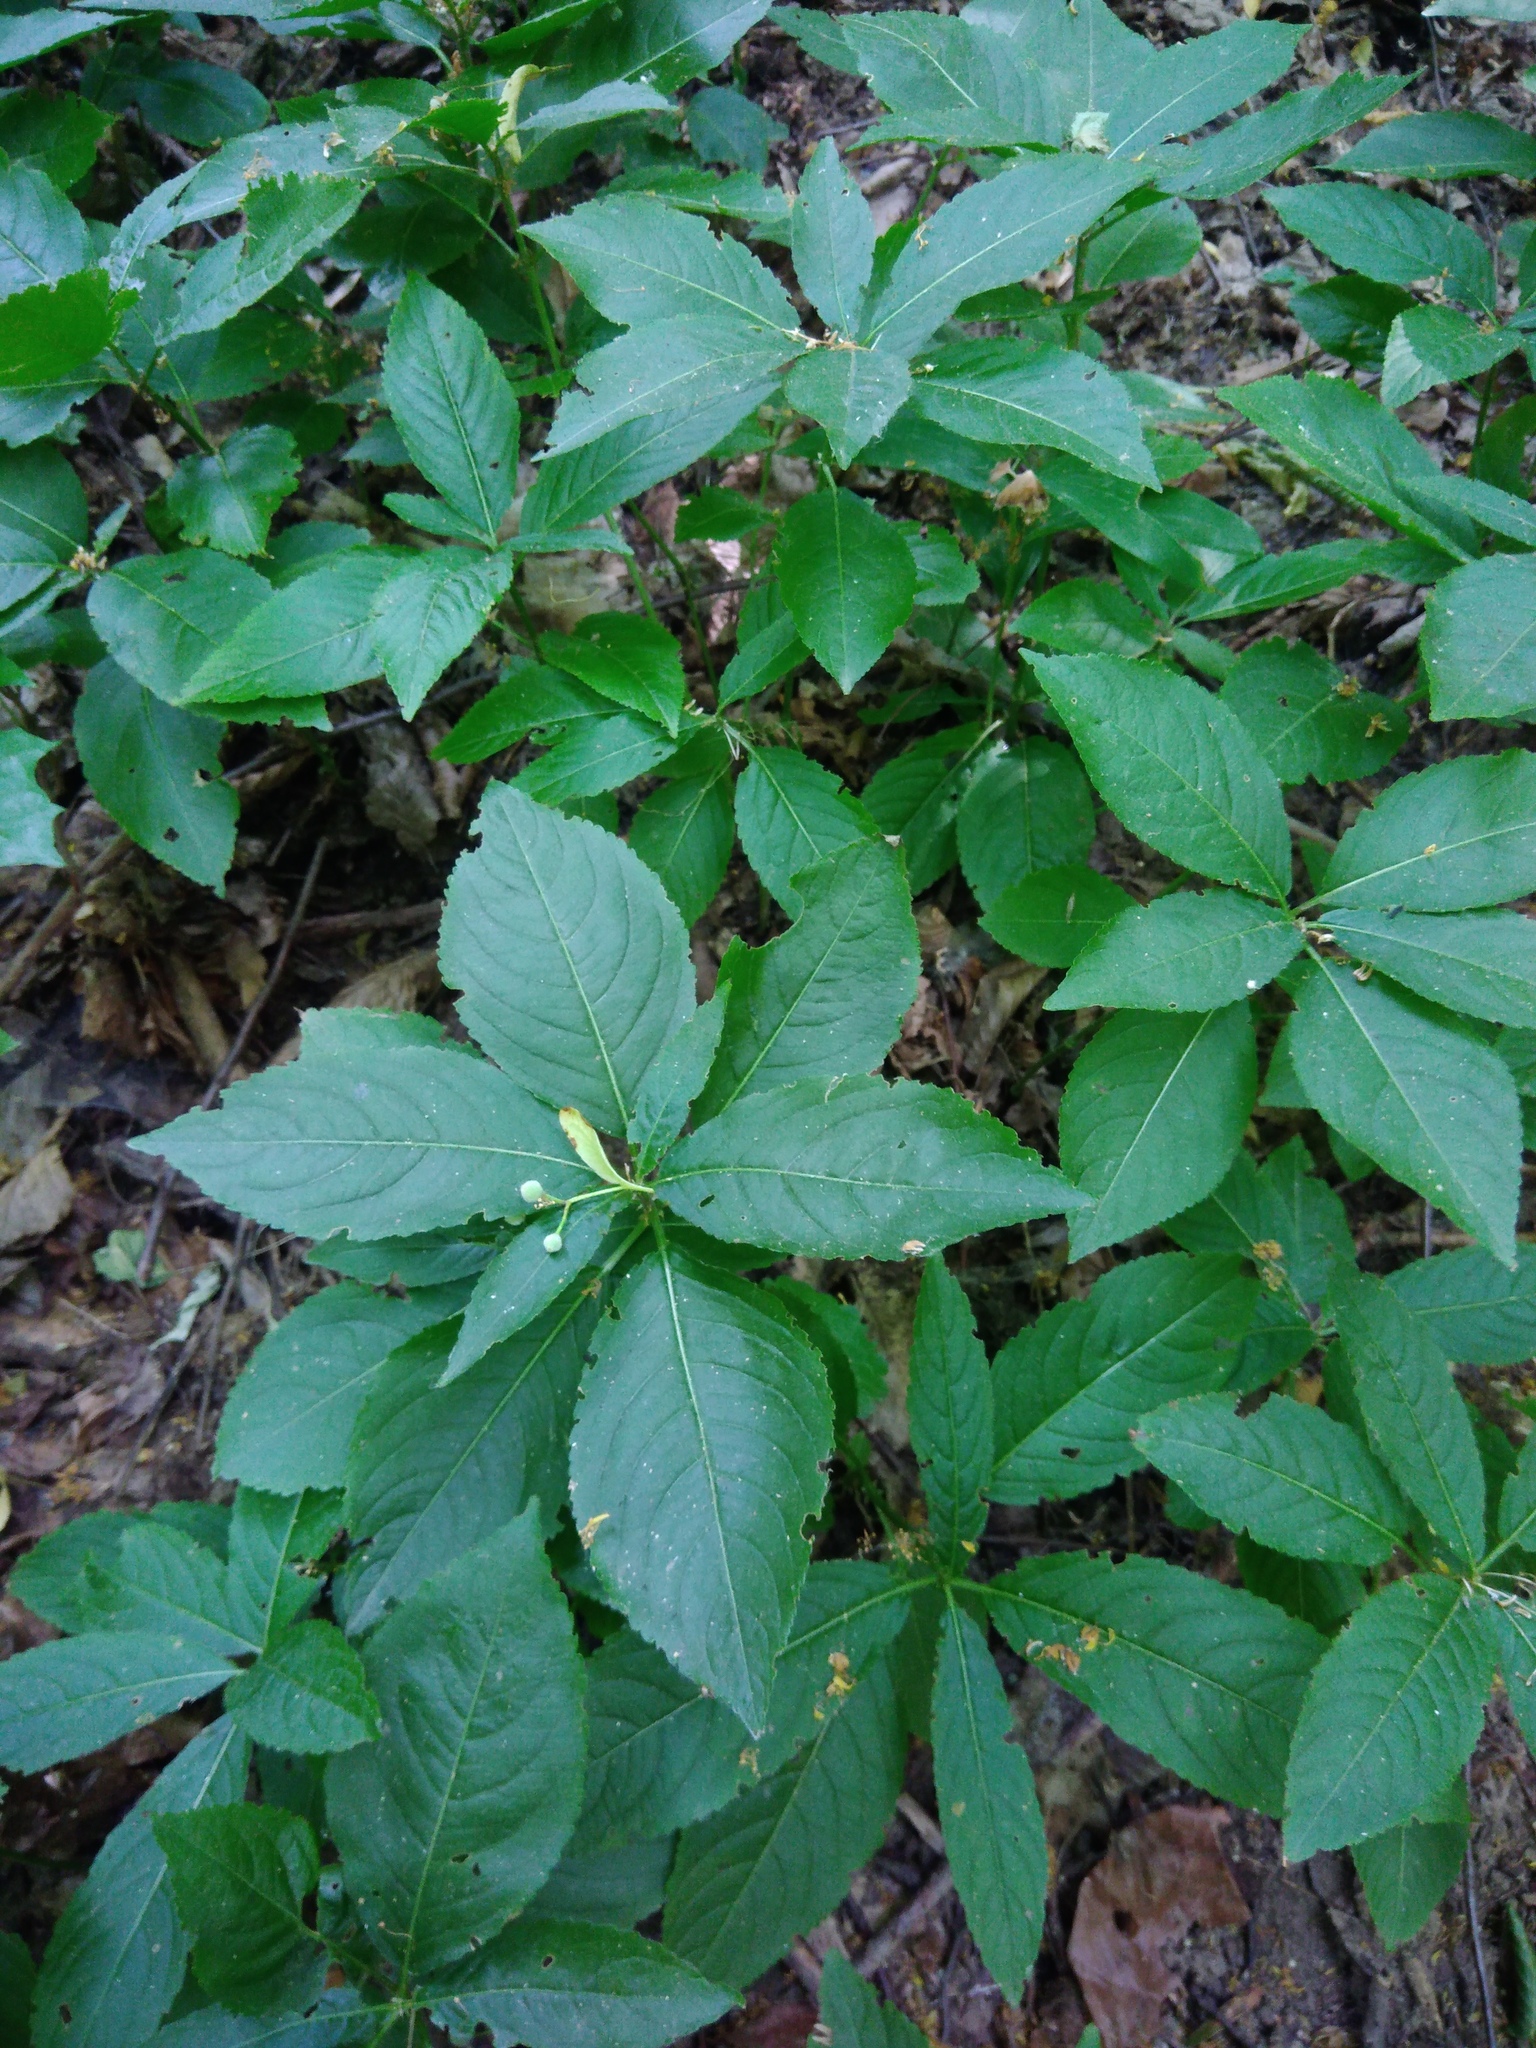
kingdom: Plantae
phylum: Tracheophyta
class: Magnoliopsida
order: Malpighiales
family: Euphorbiaceae
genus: Mercurialis
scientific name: Mercurialis perennis
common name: Dog mercury
